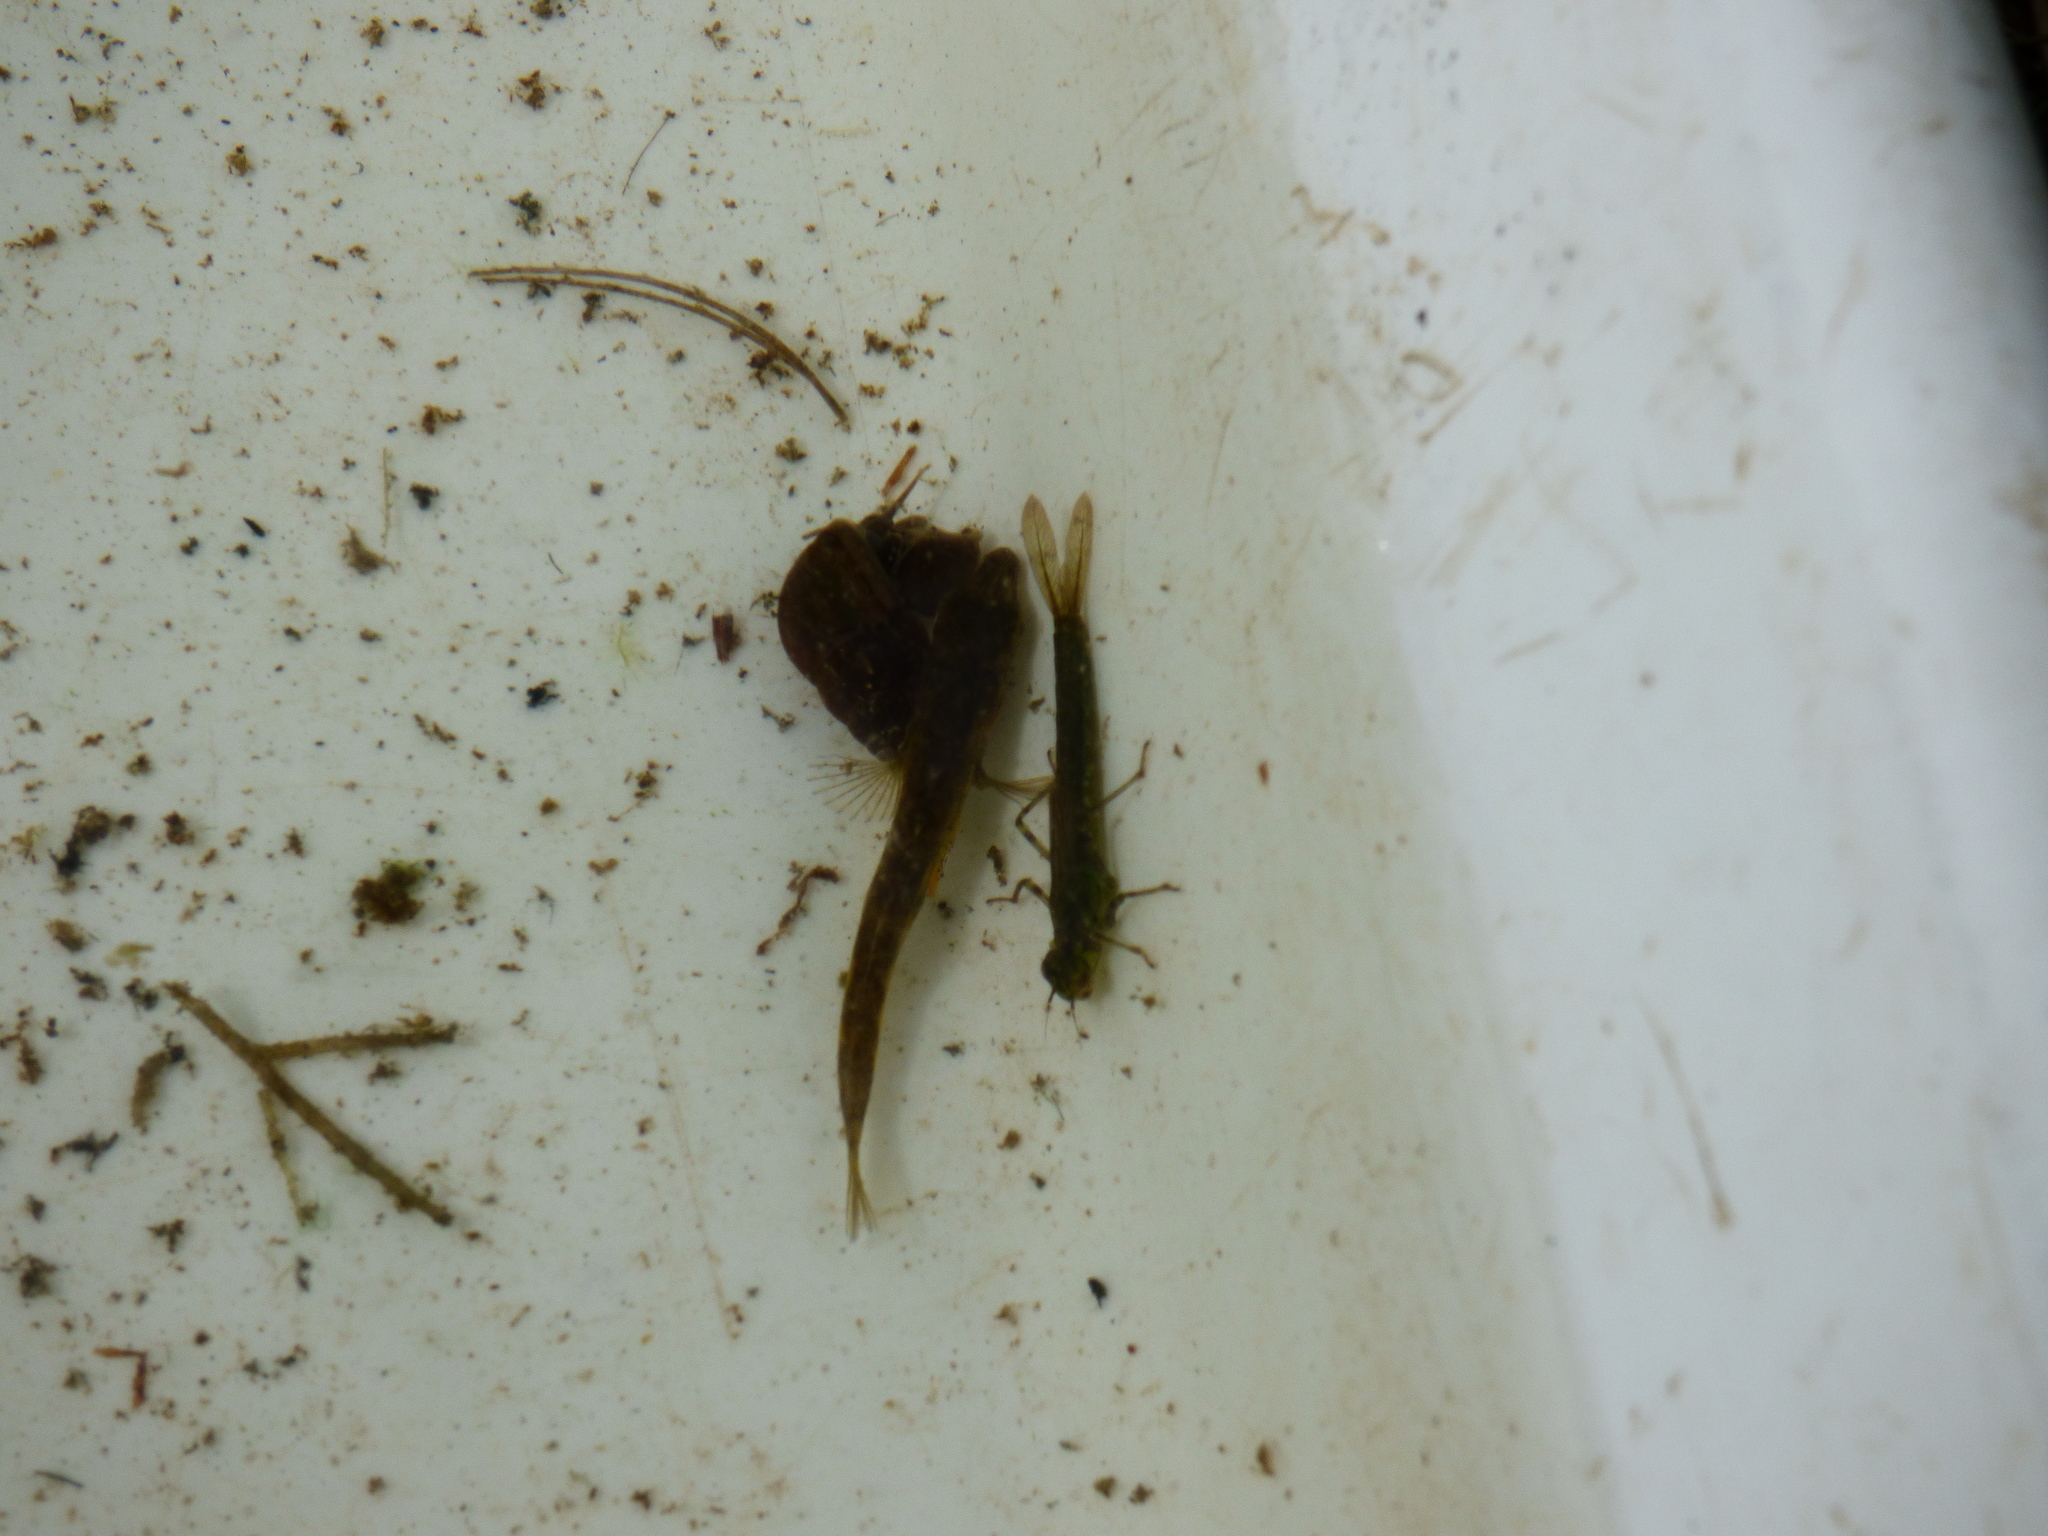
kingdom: Animalia
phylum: Chordata
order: Gasterosteiformes
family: Gasterosteidae
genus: Gasterosteus
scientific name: Gasterosteus aculeatus
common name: Three-spined stickleback
